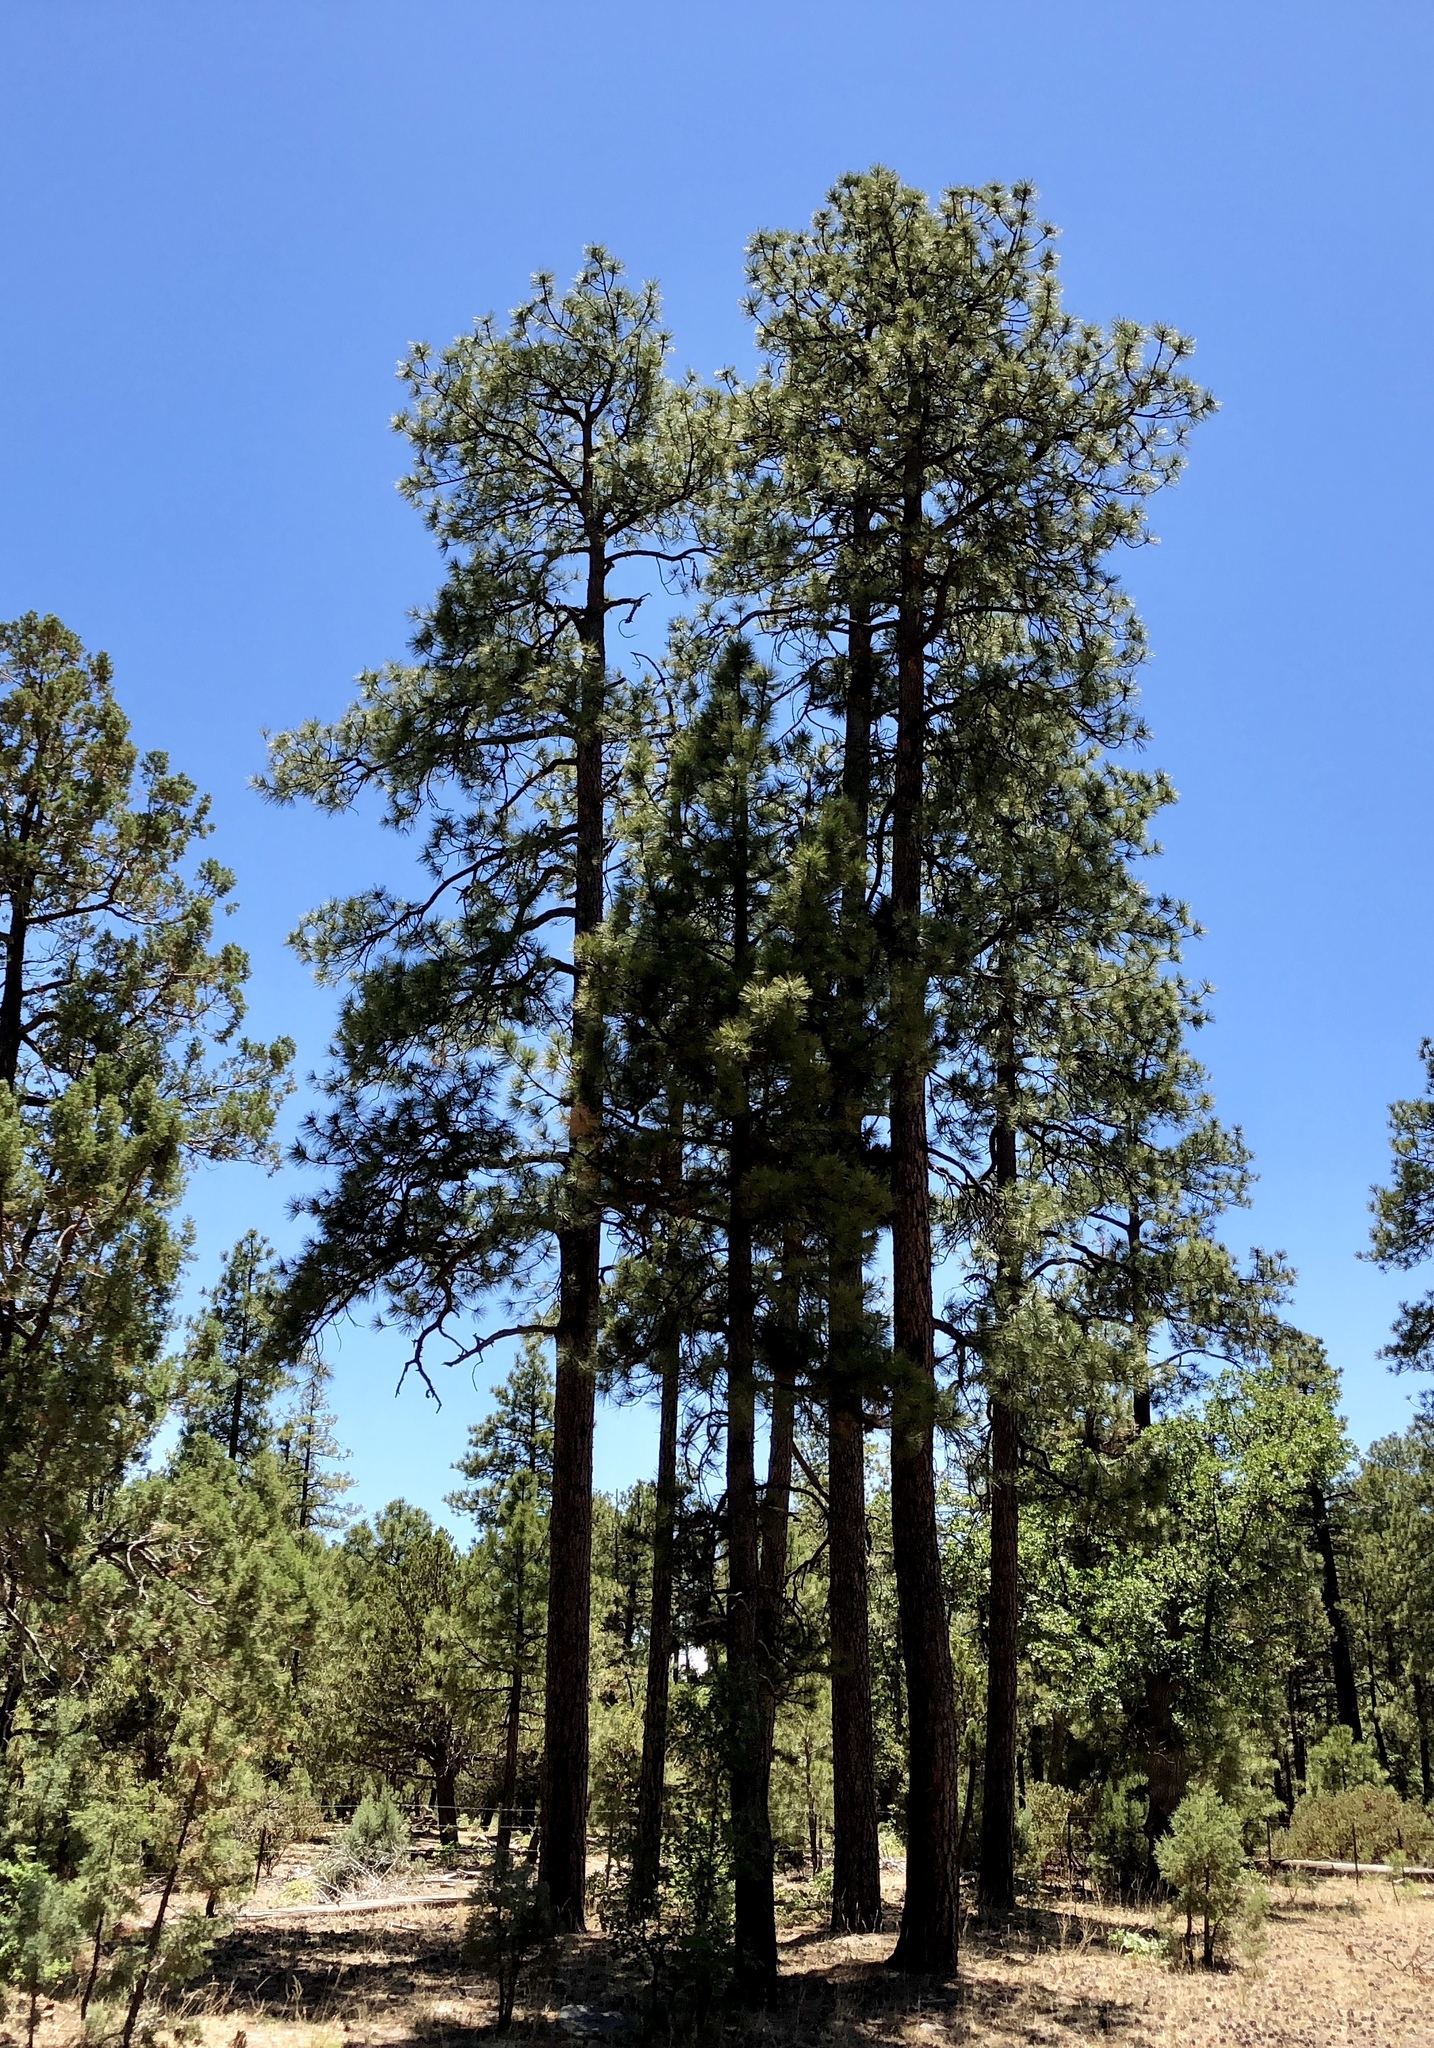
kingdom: Plantae
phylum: Tracheophyta
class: Pinopsida
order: Pinales
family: Pinaceae
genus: Pinus
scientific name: Pinus ponderosa
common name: Western yellow-pine
